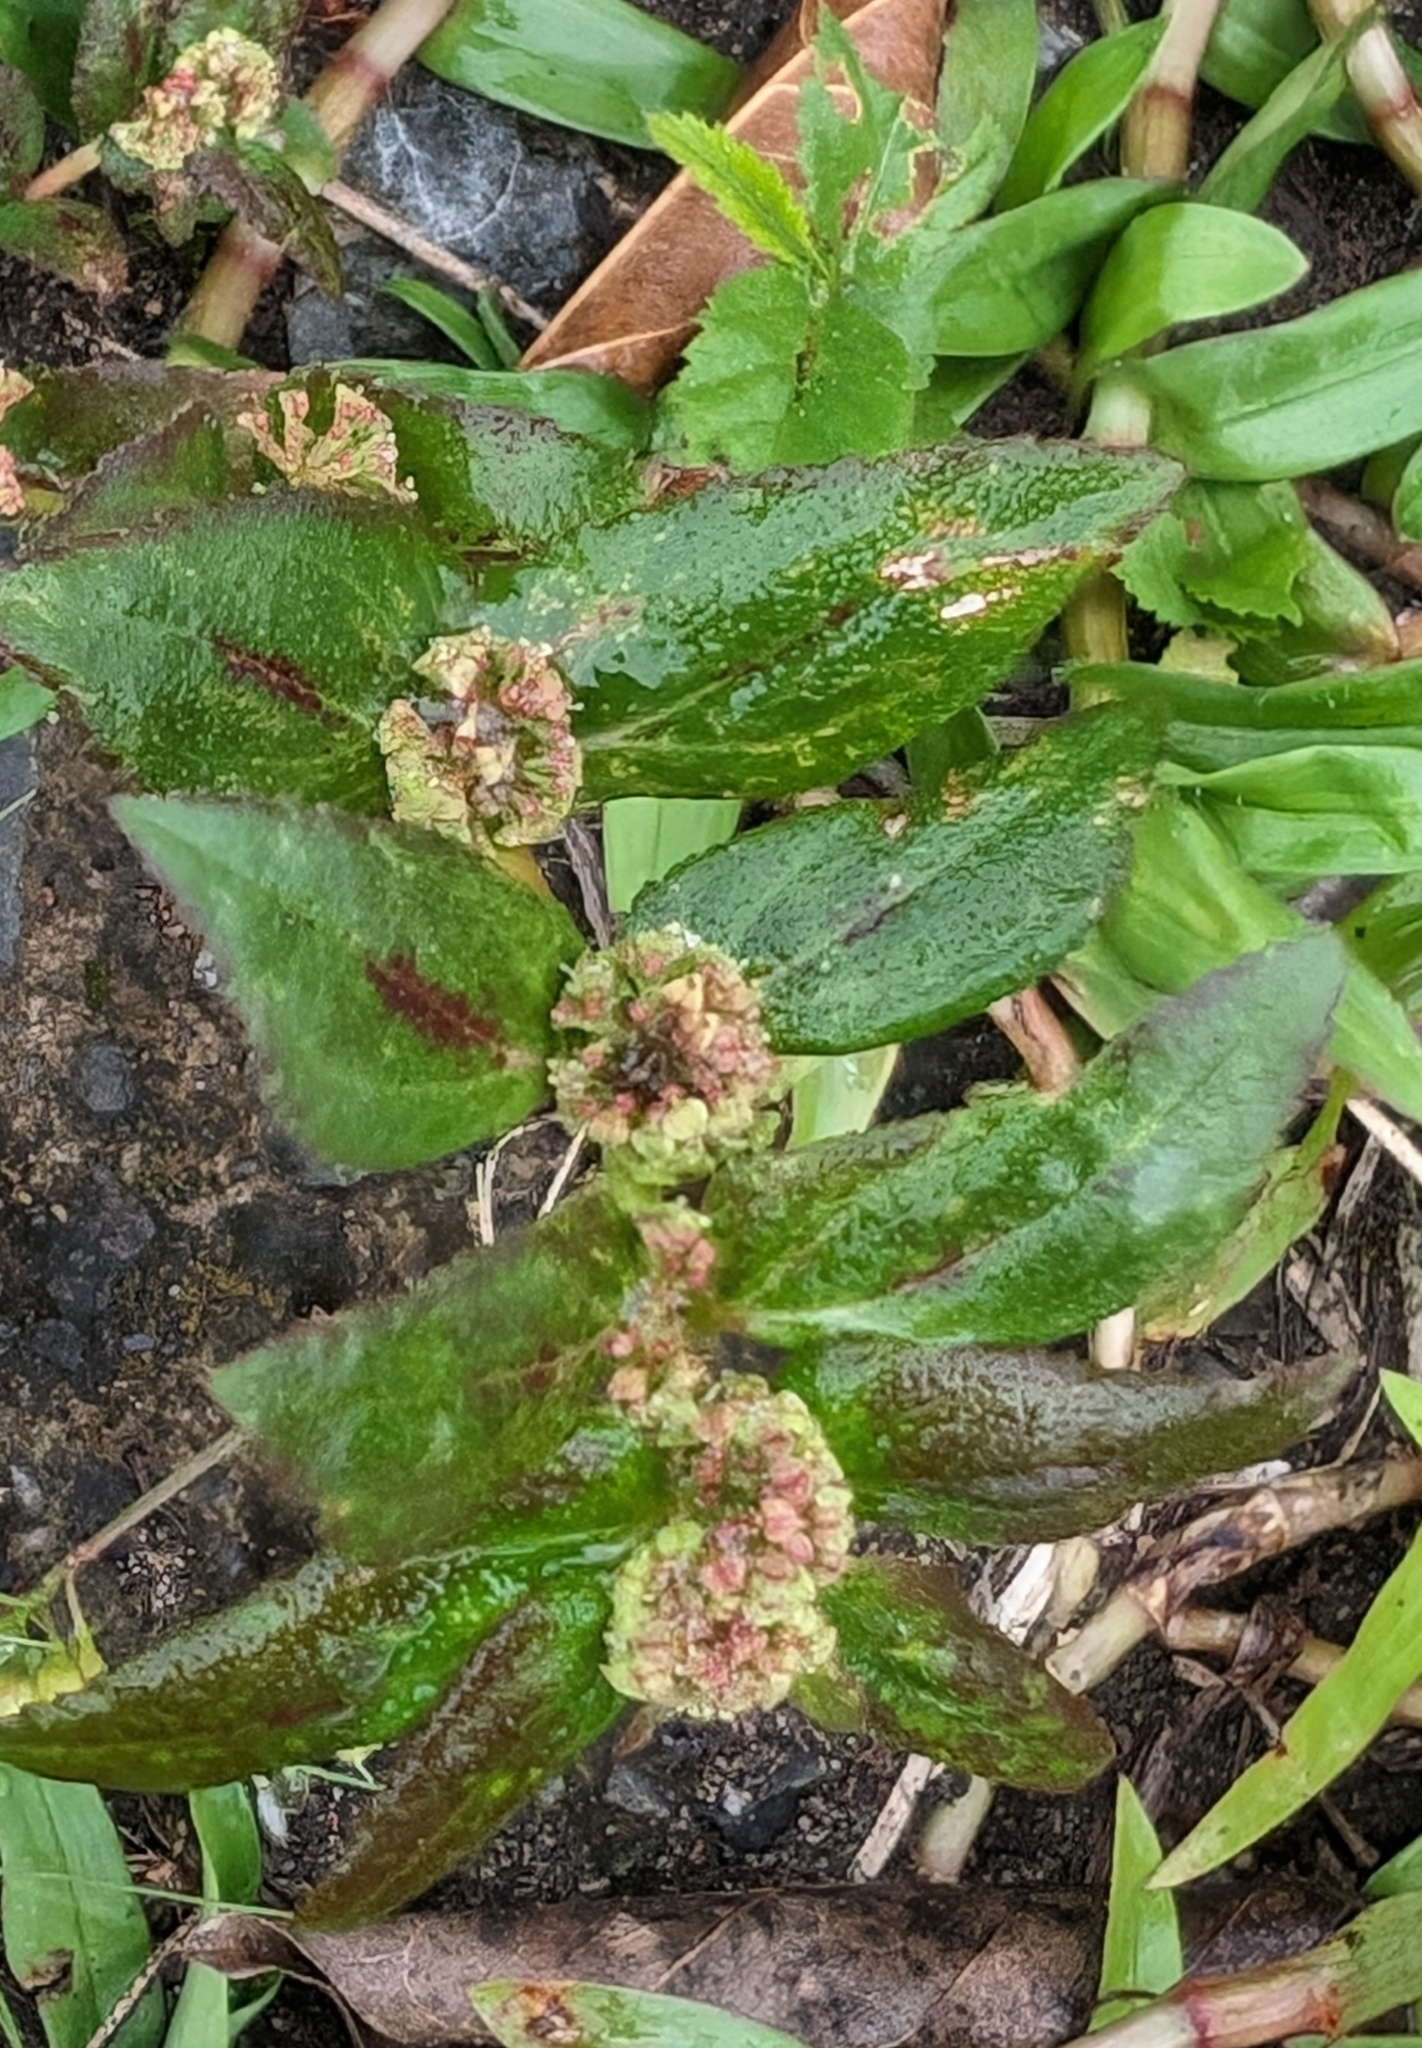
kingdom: Plantae
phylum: Tracheophyta
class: Magnoliopsida
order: Malpighiales
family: Euphorbiaceae
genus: Euphorbia
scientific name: Euphorbia hirta
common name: Pillpod sandmat
